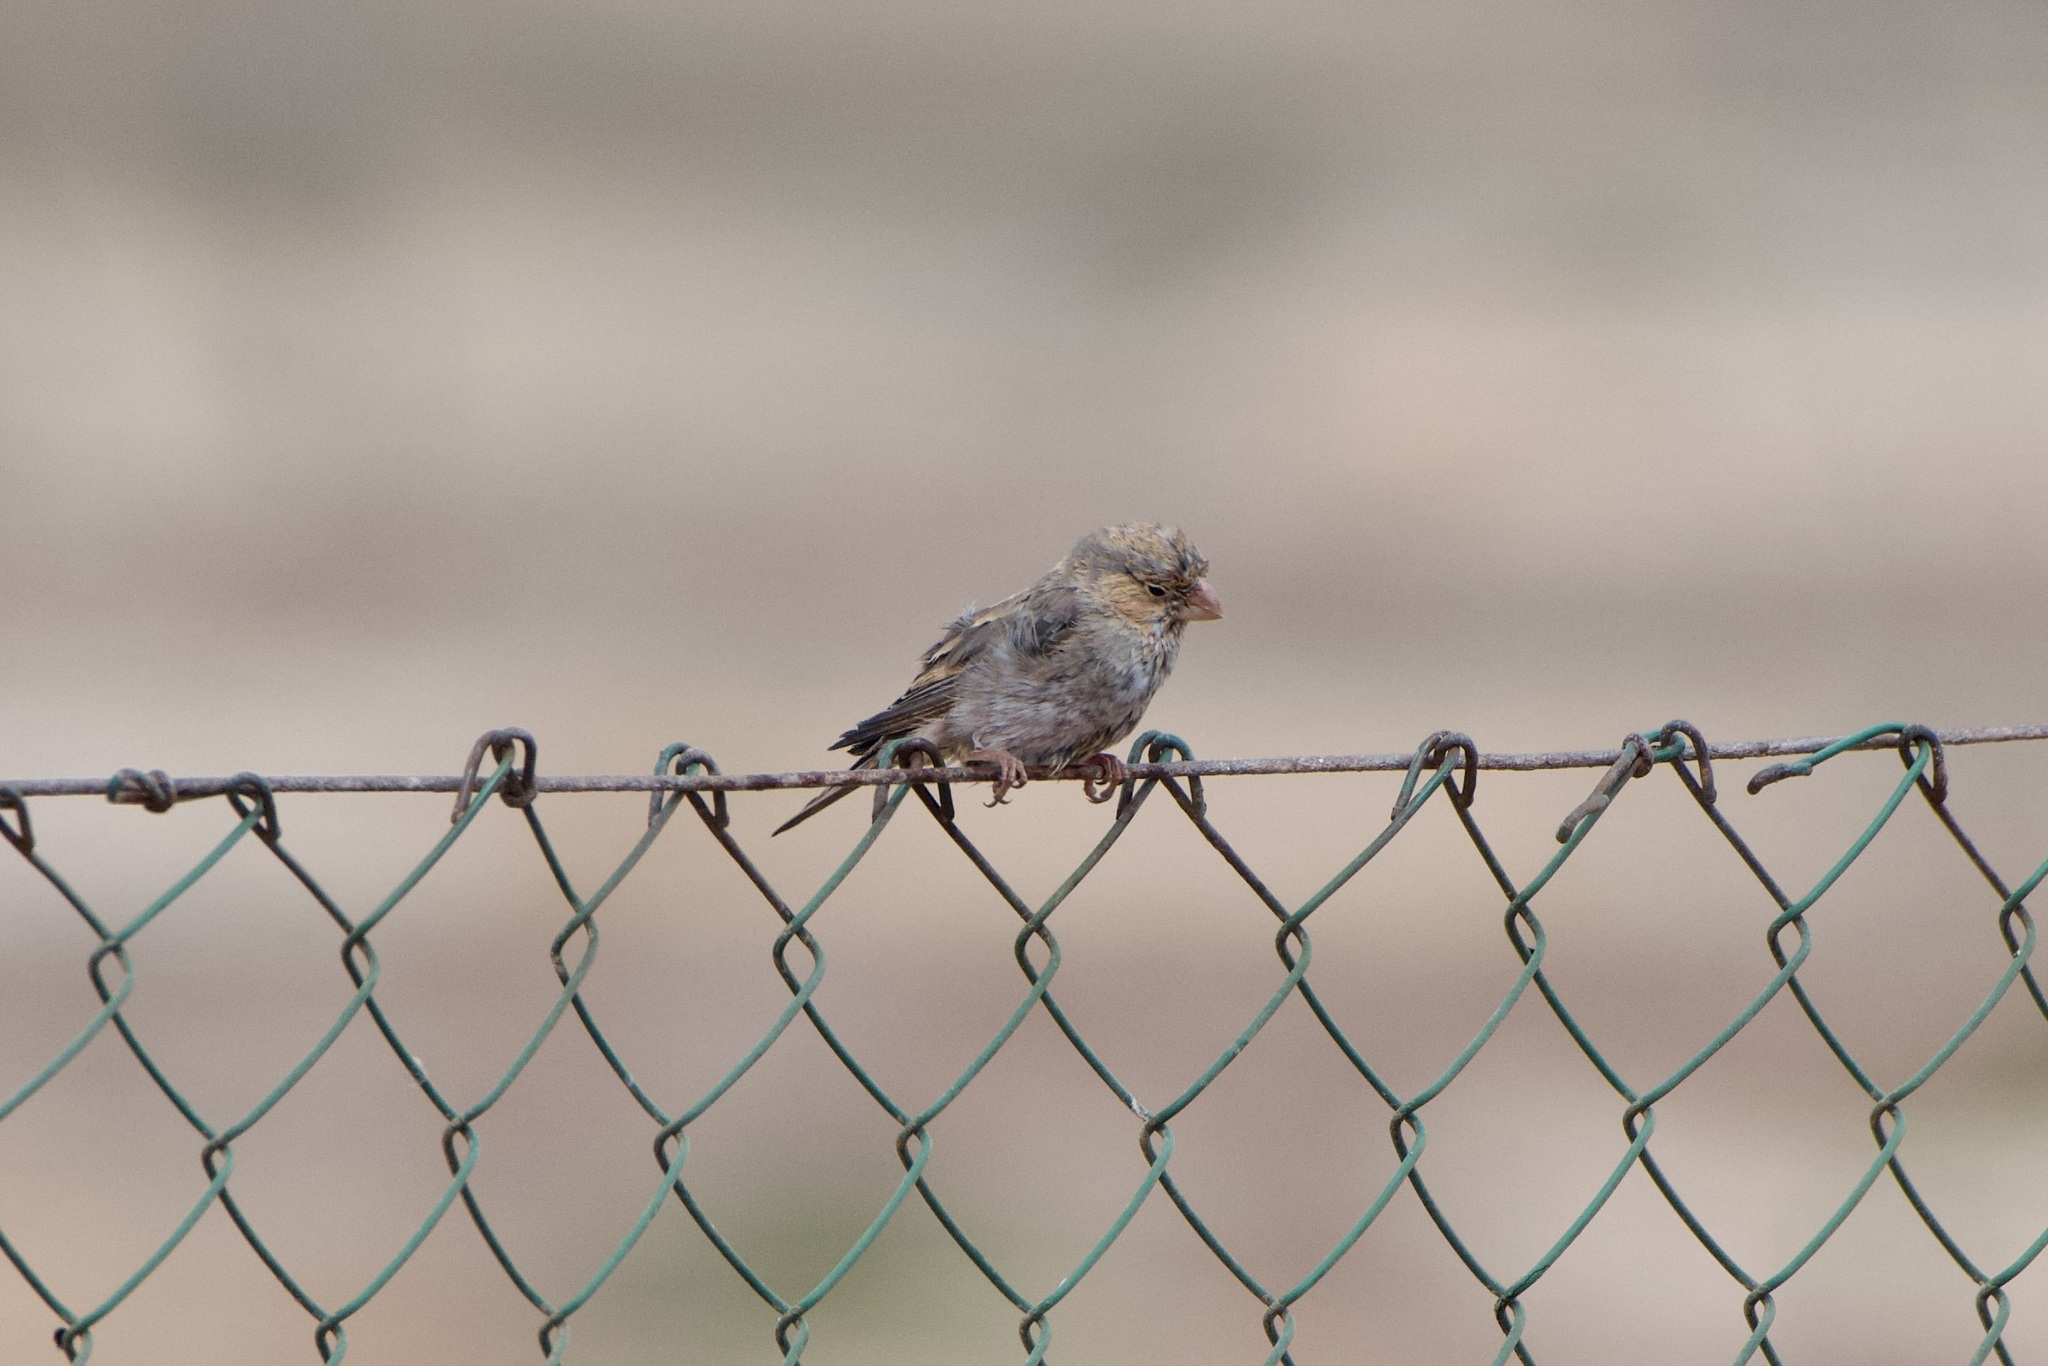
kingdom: Animalia
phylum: Chordata
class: Aves
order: Passeriformes
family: Fringillidae
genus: Bucanetes
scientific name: Bucanetes githagineus
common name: Trumpeter finch
